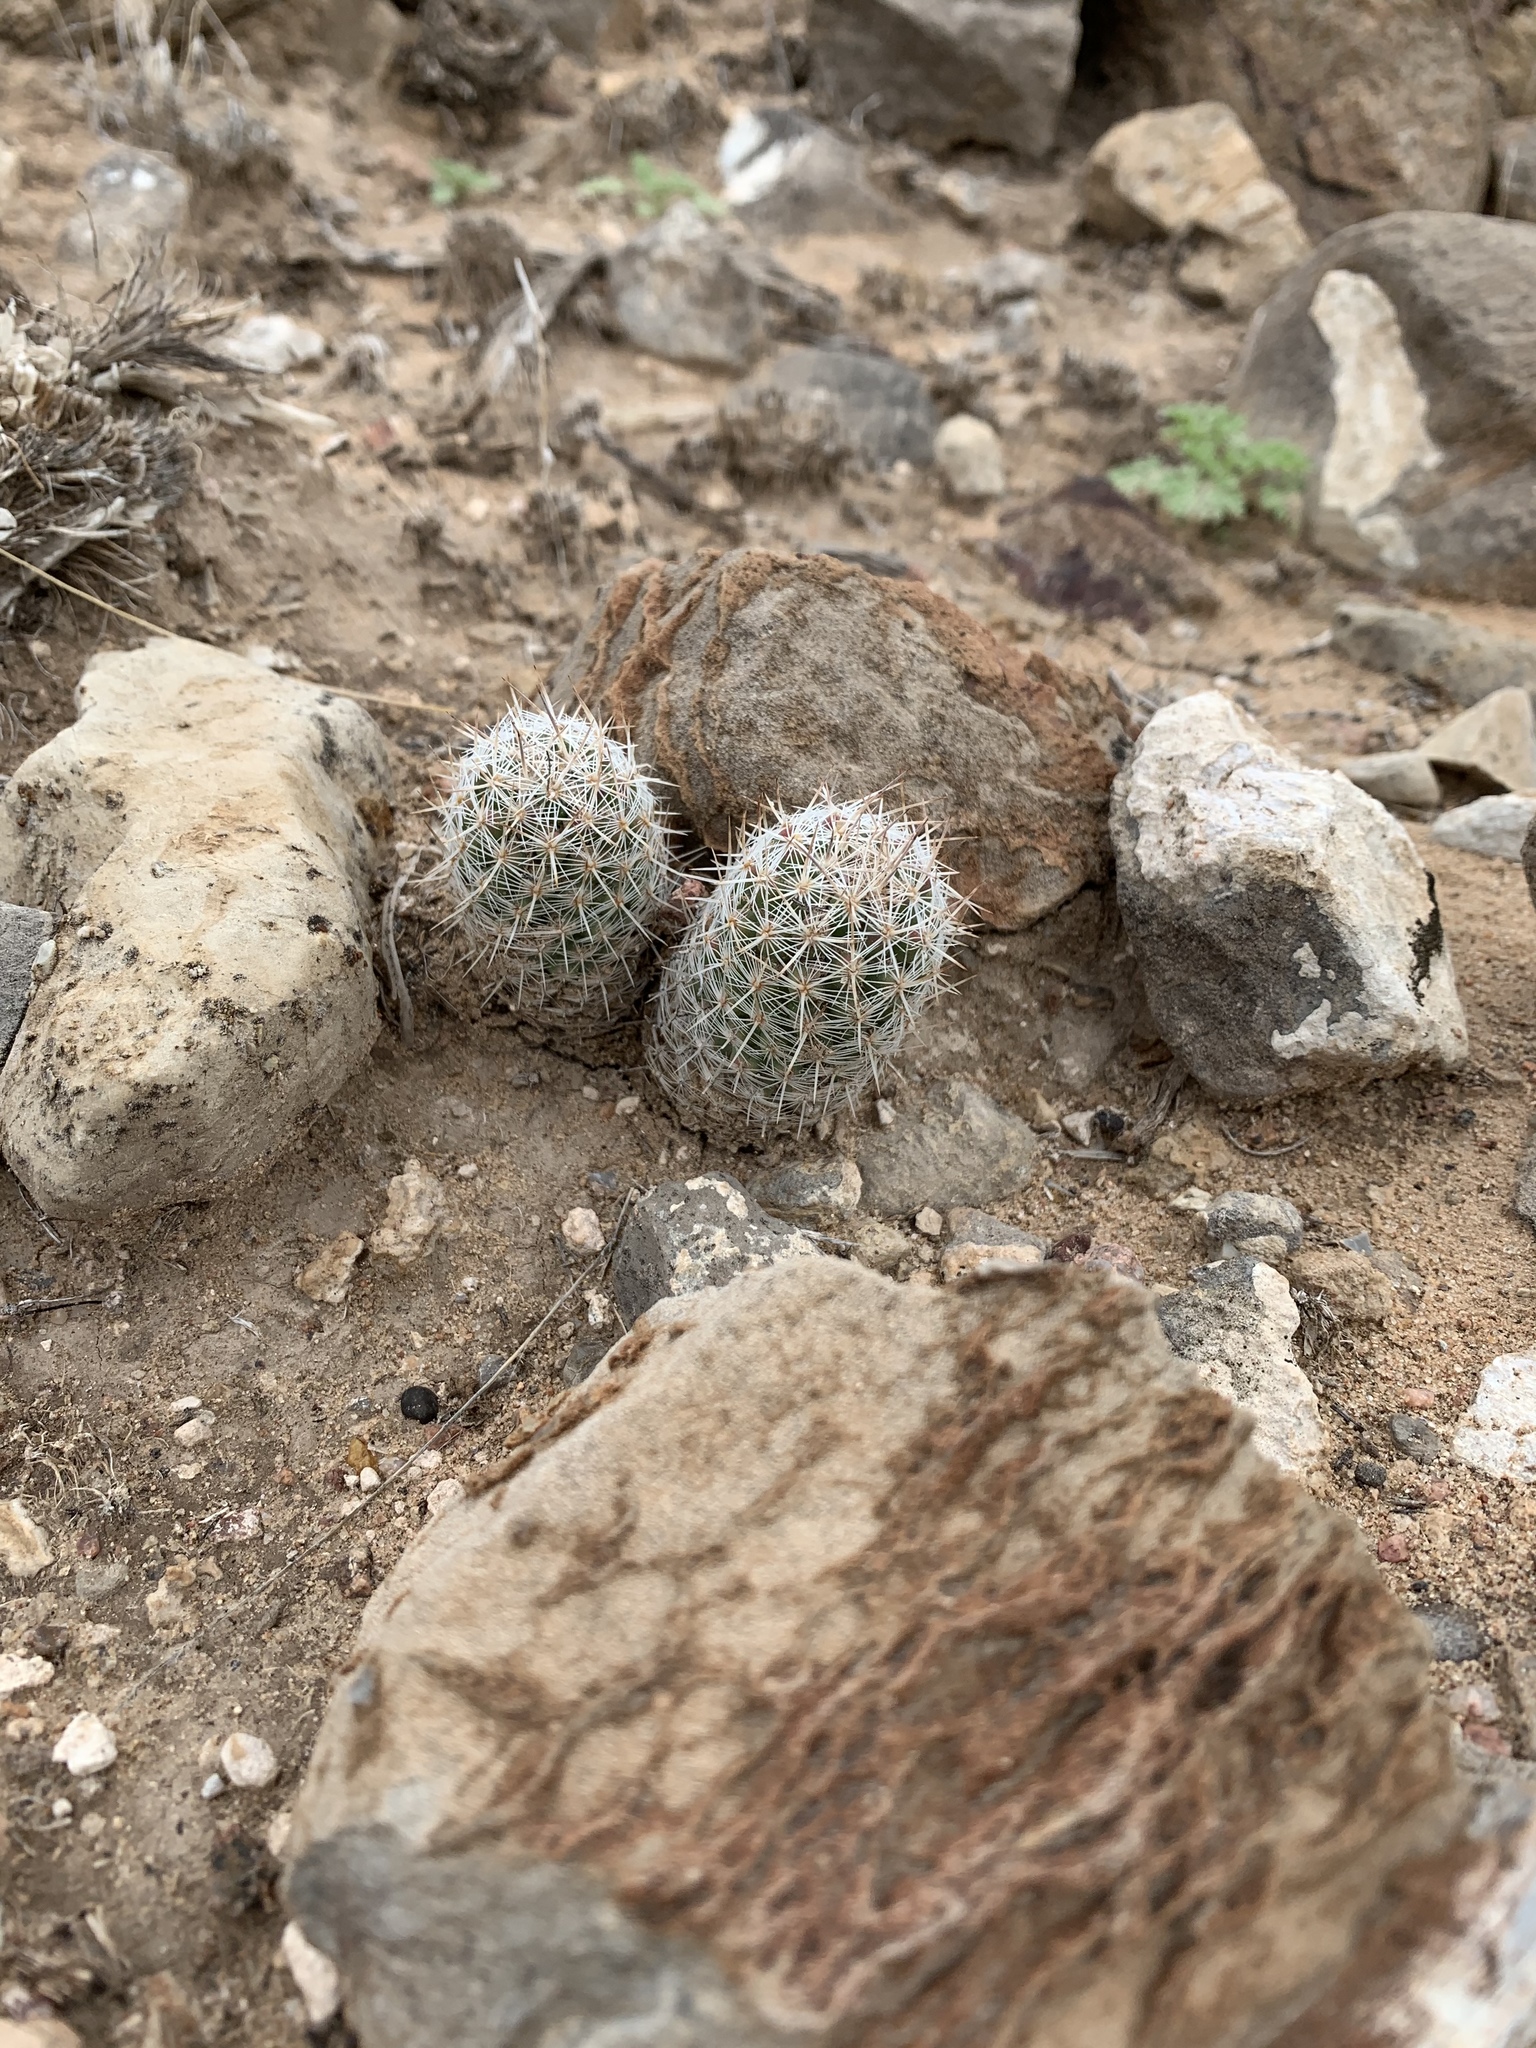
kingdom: Plantae
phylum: Tracheophyta
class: Magnoliopsida
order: Caryophyllales
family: Cactaceae
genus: Pelecyphora
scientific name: Pelecyphora tuberculosa
